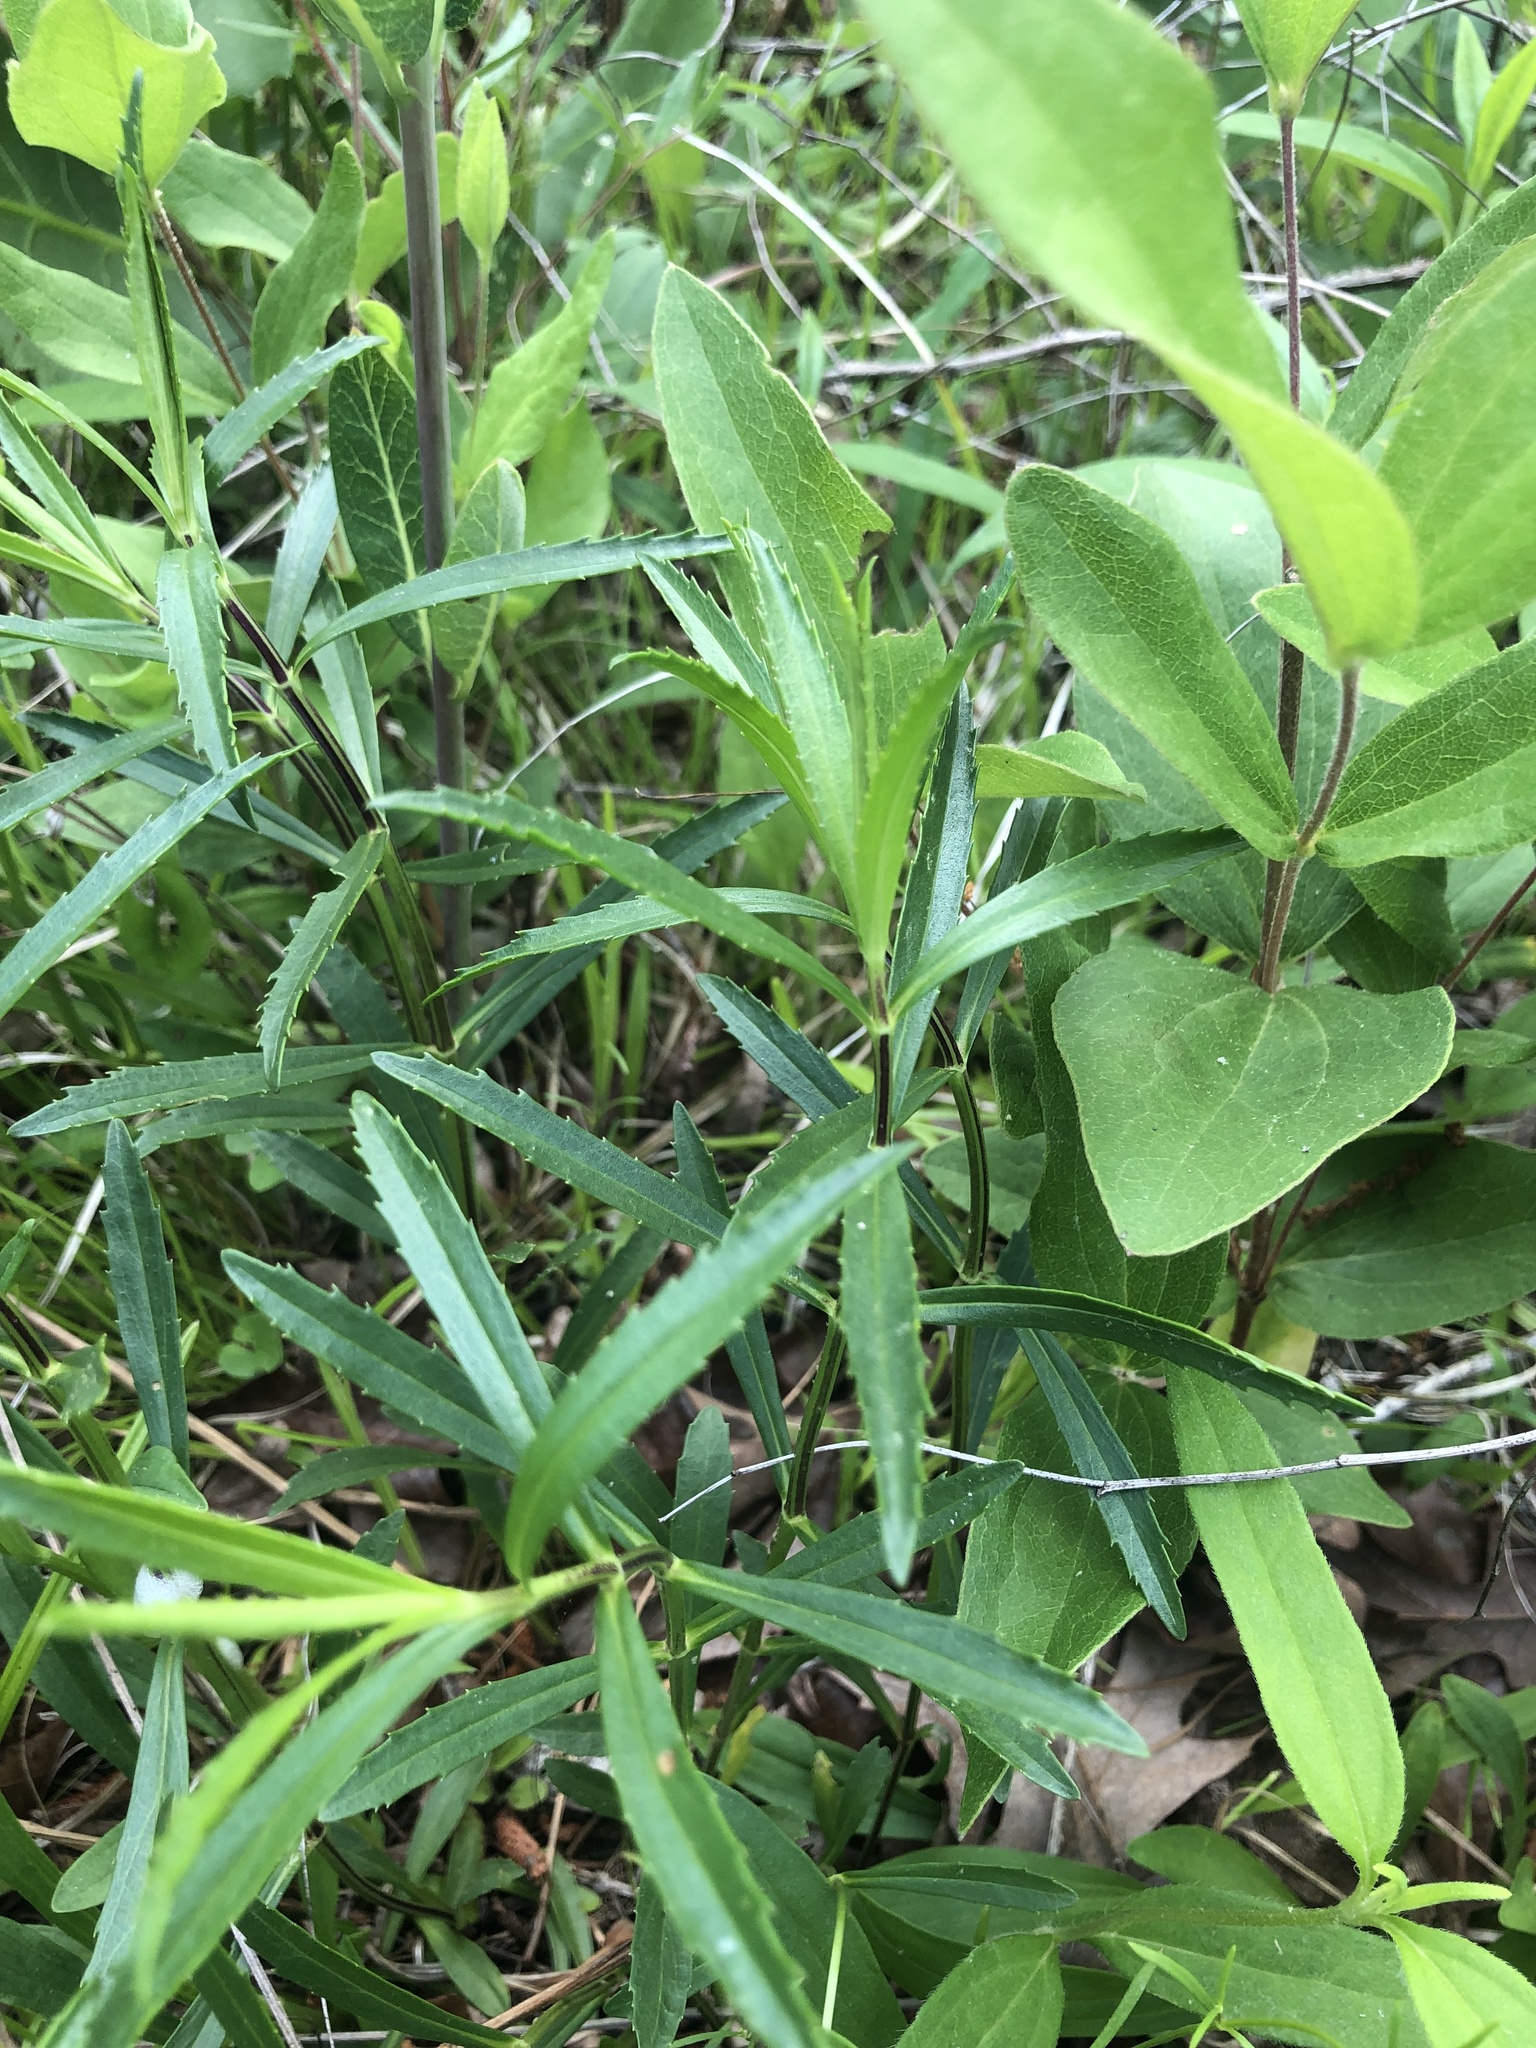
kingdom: Plantae
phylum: Tracheophyta
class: Magnoliopsida
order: Lamiales
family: Lamiaceae
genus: Physostegia
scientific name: Physostegia virginiana
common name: Obedient-plant
